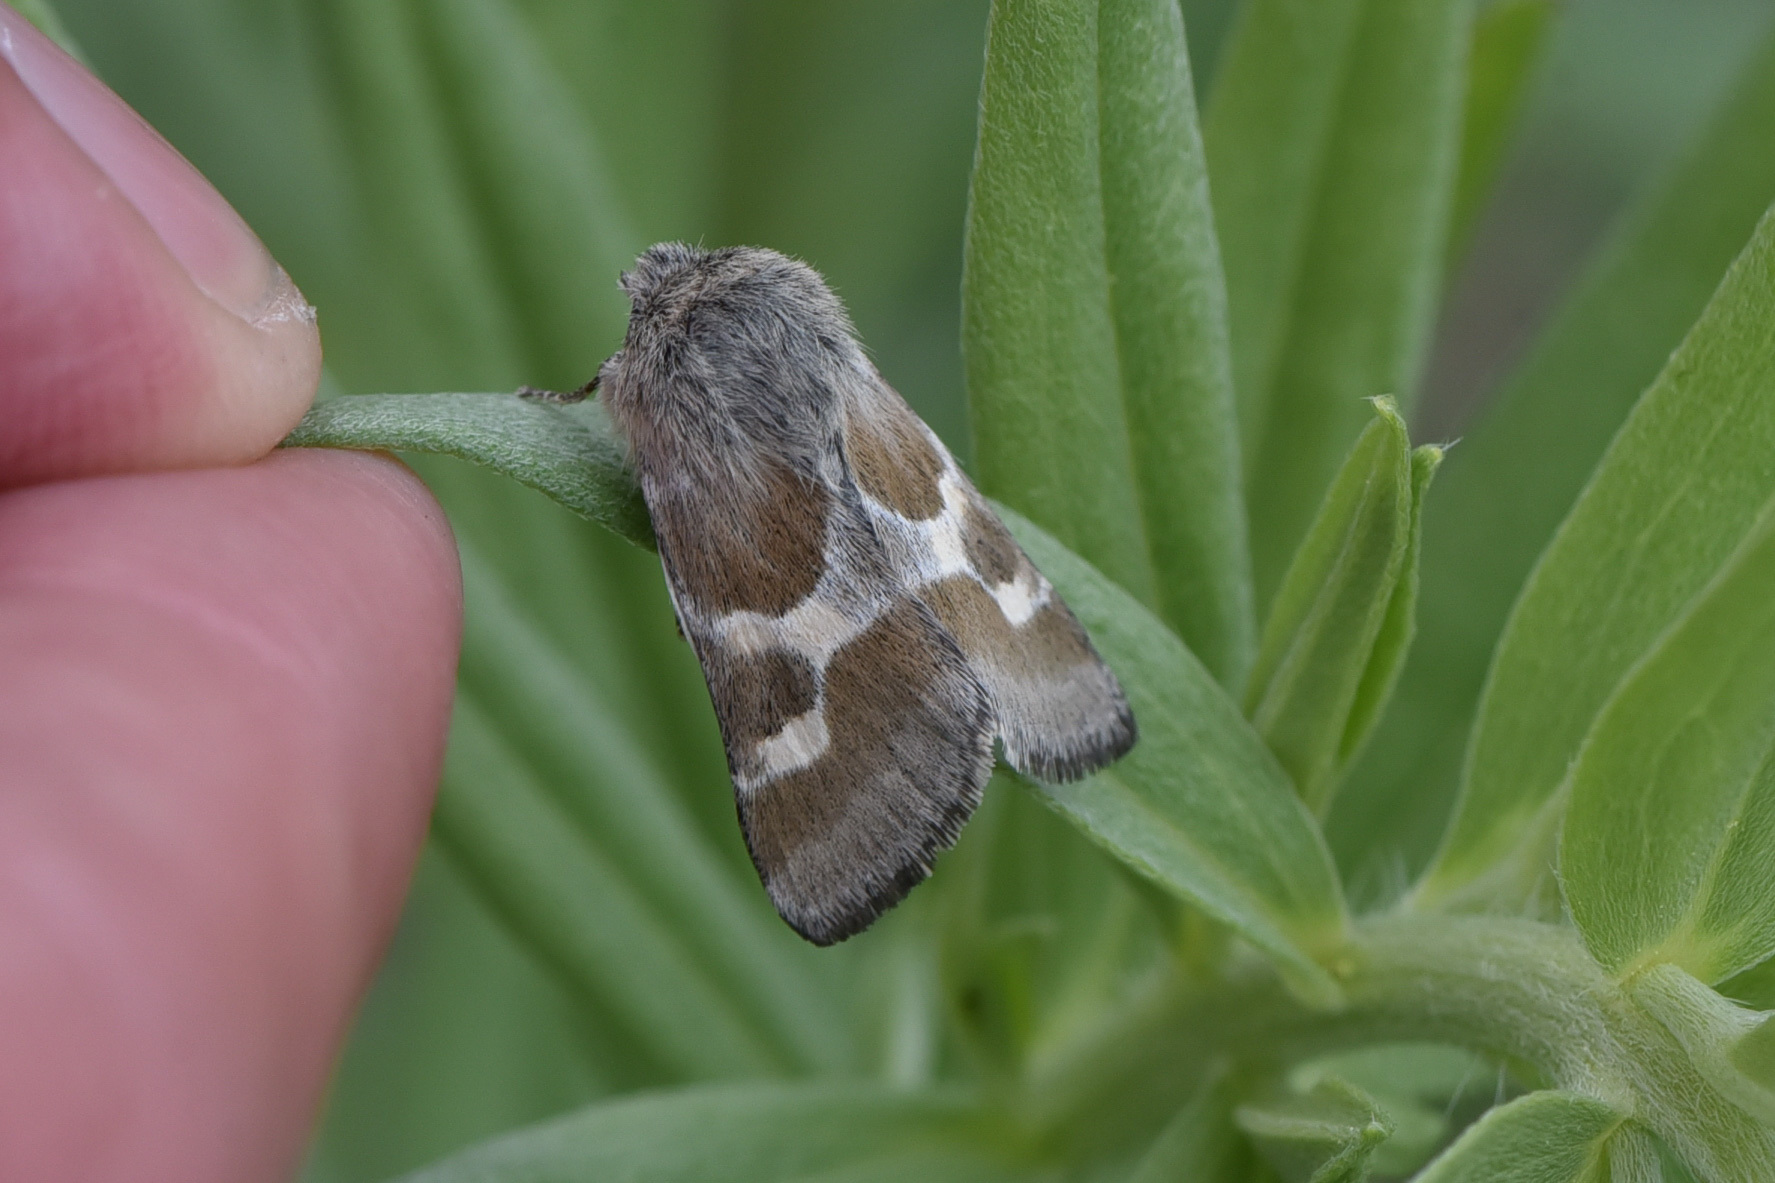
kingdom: Animalia
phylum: Arthropoda
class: Insecta
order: Lepidoptera
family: Noctuidae
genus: Schinia
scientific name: Schinia suetus
